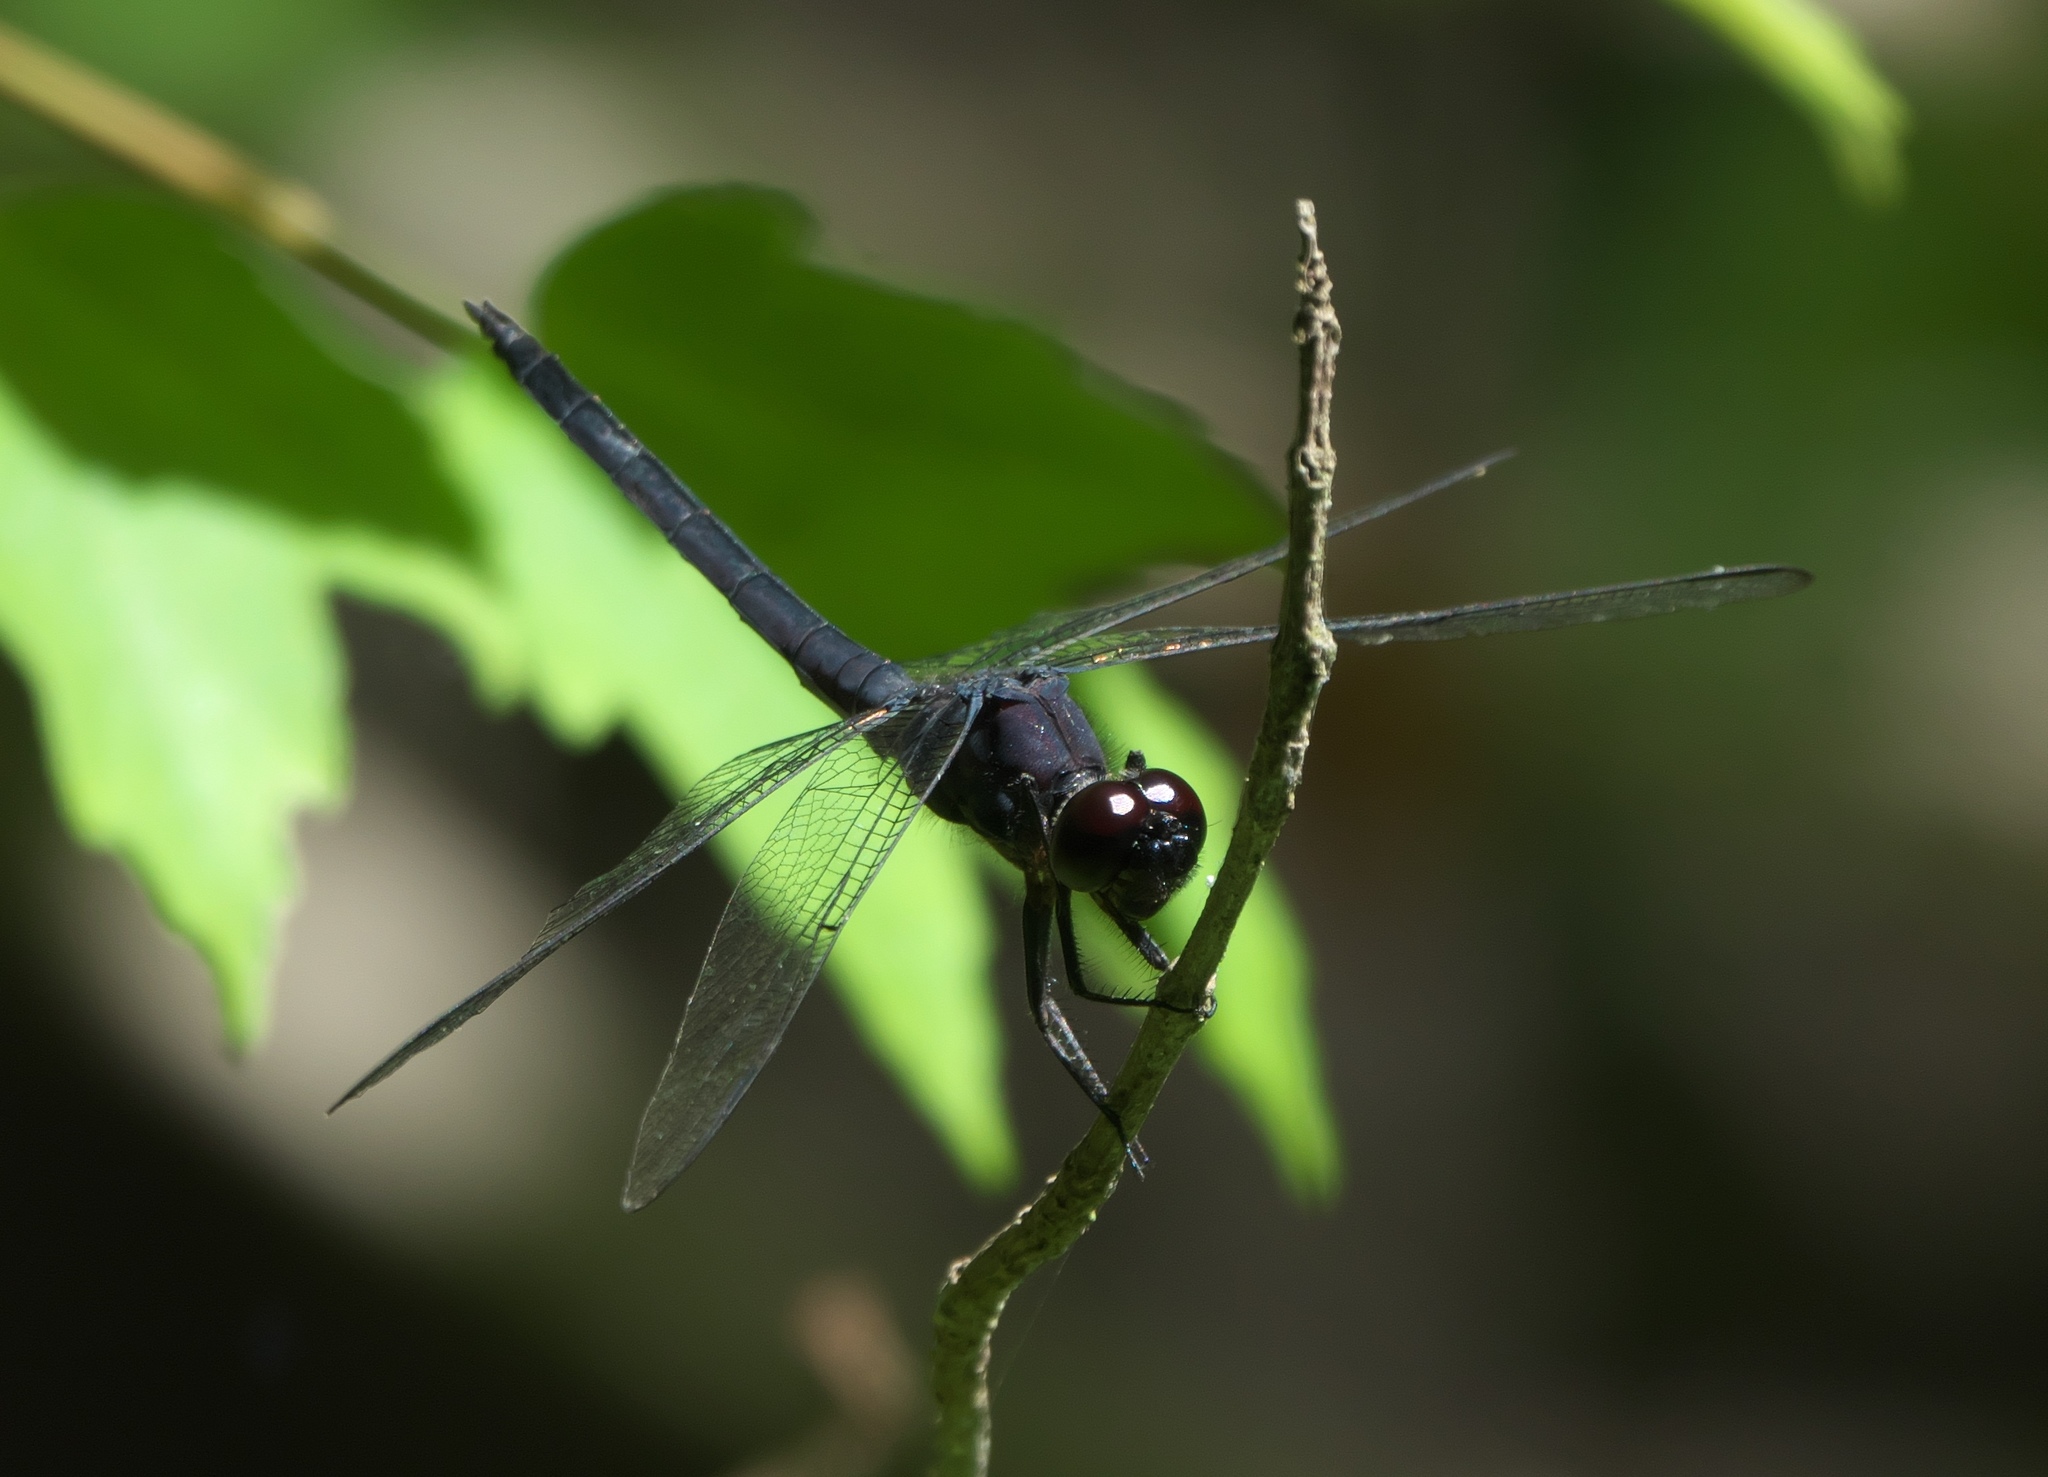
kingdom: Animalia
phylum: Arthropoda
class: Insecta
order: Odonata
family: Libellulidae
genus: Libellula
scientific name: Libellula incesta
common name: Slaty skimmer
